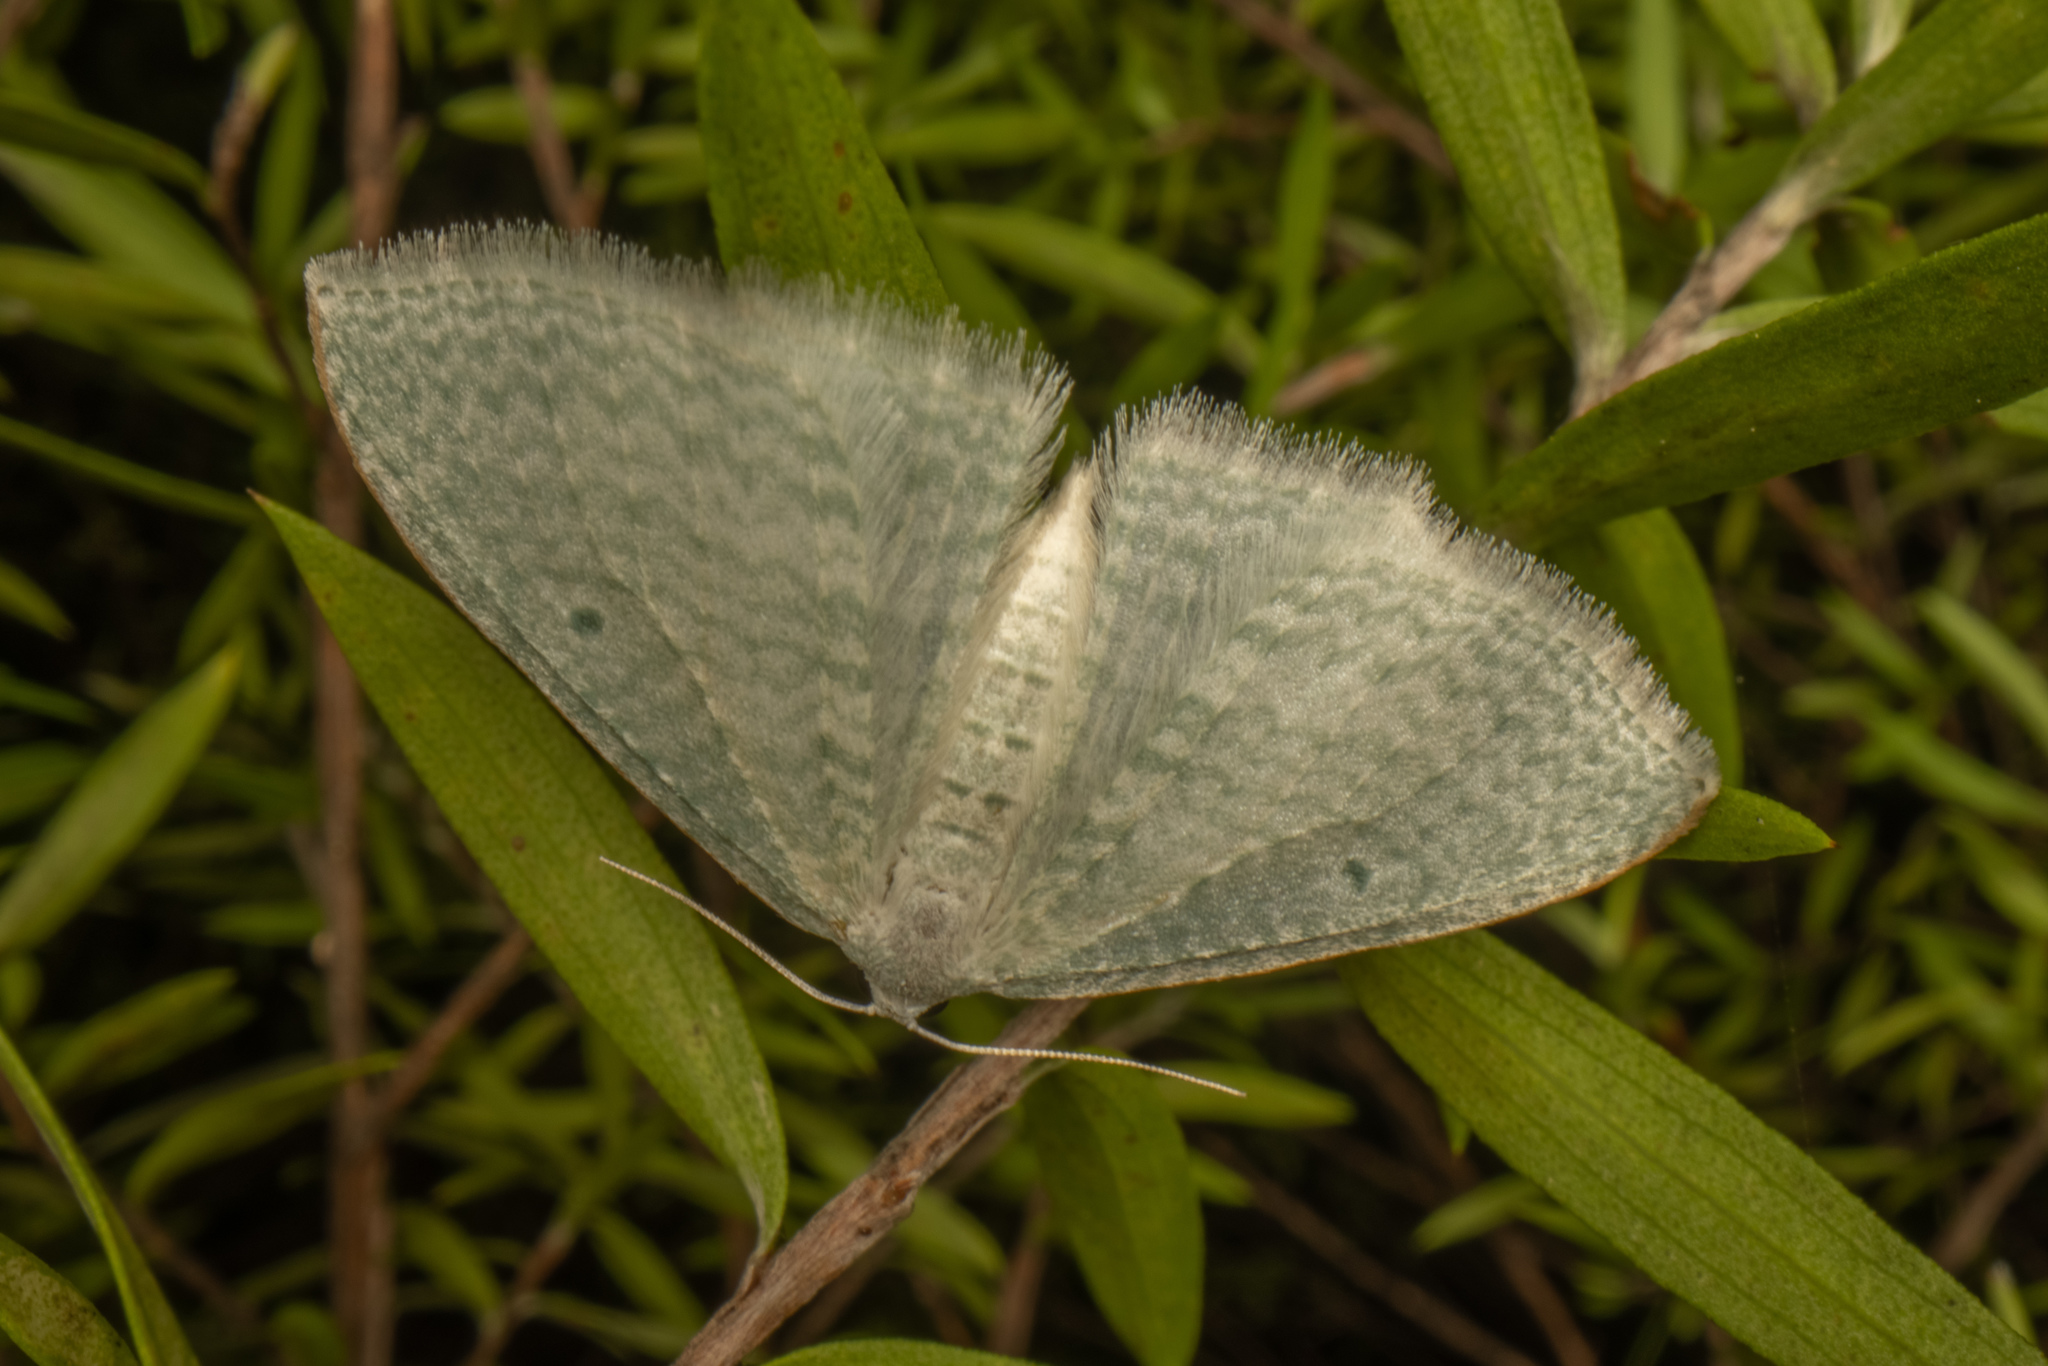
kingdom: Animalia
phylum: Arthropoda
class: Insecta
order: Lepidoptera
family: Geometridae
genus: Poecilasthena
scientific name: Poecilasthena pulchraria
